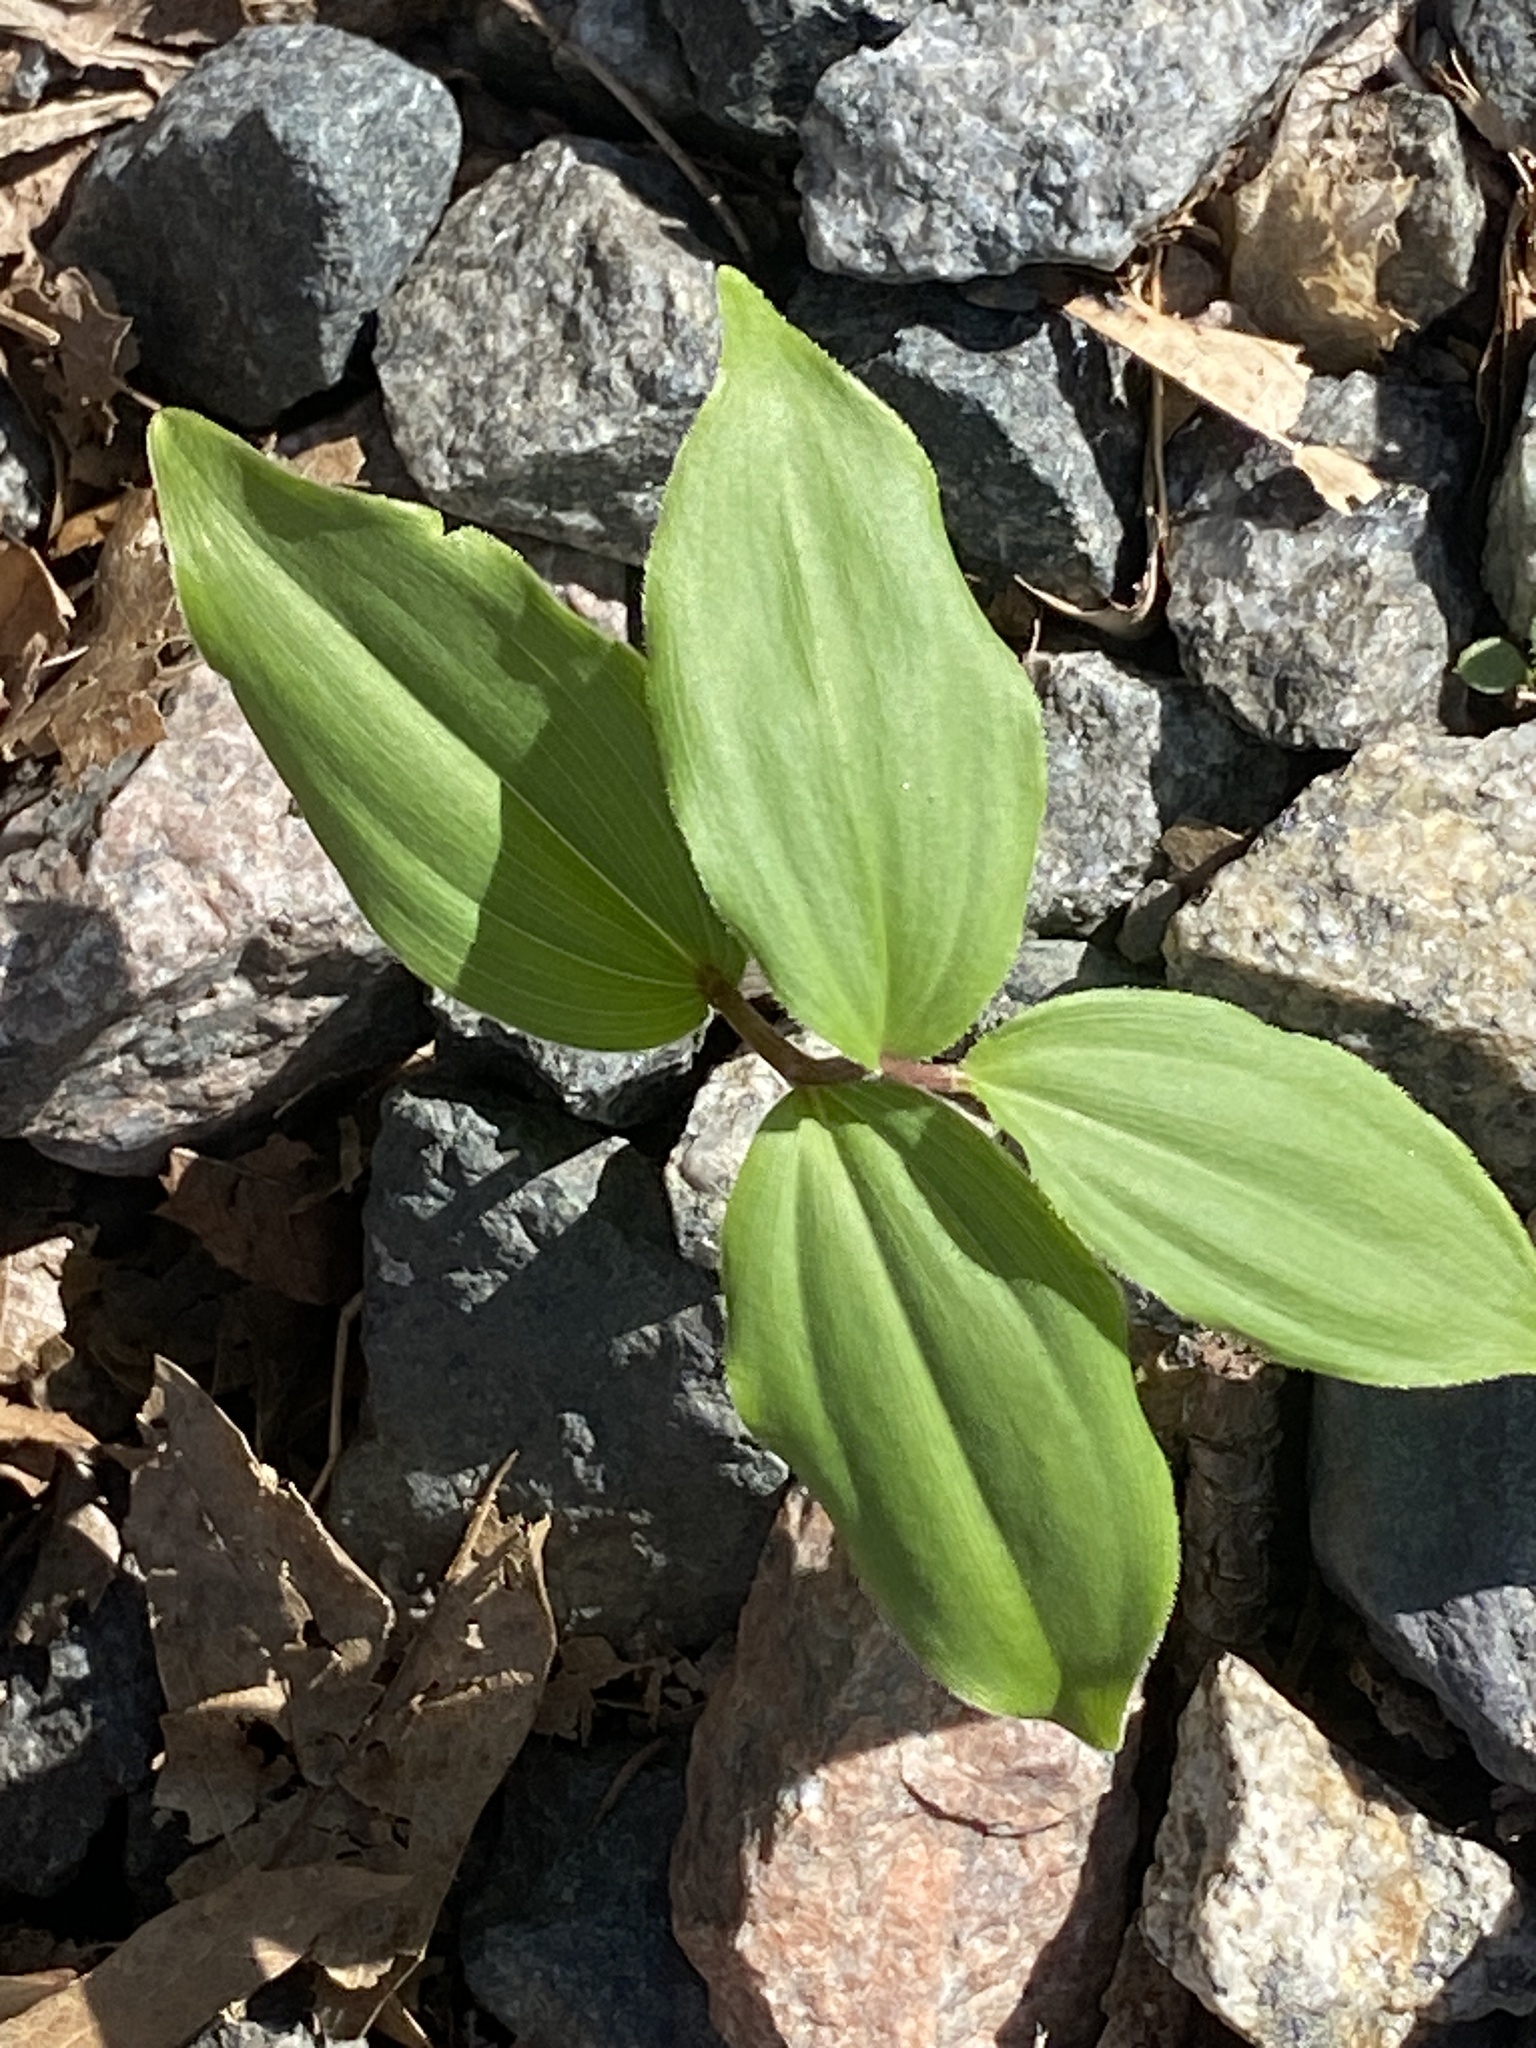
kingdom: Plantae
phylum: Tracheophyta
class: Liliopsida
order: Asparagales
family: Asparagaceae
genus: Maianthemum
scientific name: Maianthemum racemosum
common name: False spikenard
